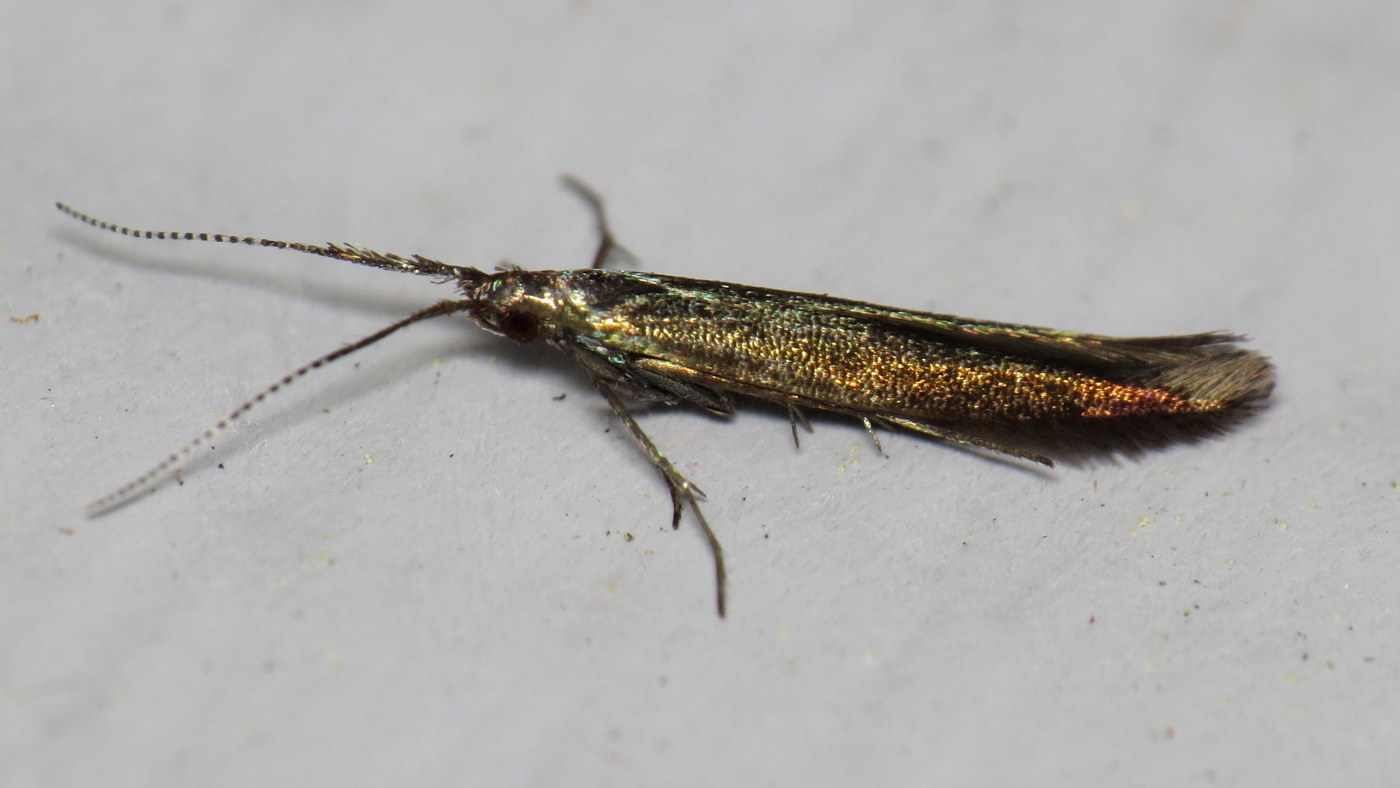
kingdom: Animalia
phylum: Arthropoda
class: Insecta
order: Lepidoptera
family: Coleophoridae
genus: Coleophora
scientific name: Coleophora mayrella
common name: Meadow case-bearer
